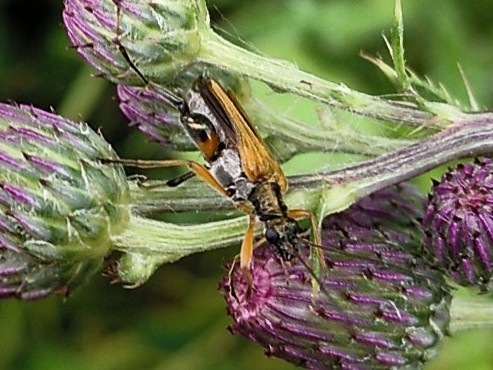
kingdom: Animalia
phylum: Arthropoda
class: Insecta
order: Coleoptera
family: Oedemeridae
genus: Oedemera
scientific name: Oedemera podagrariae
